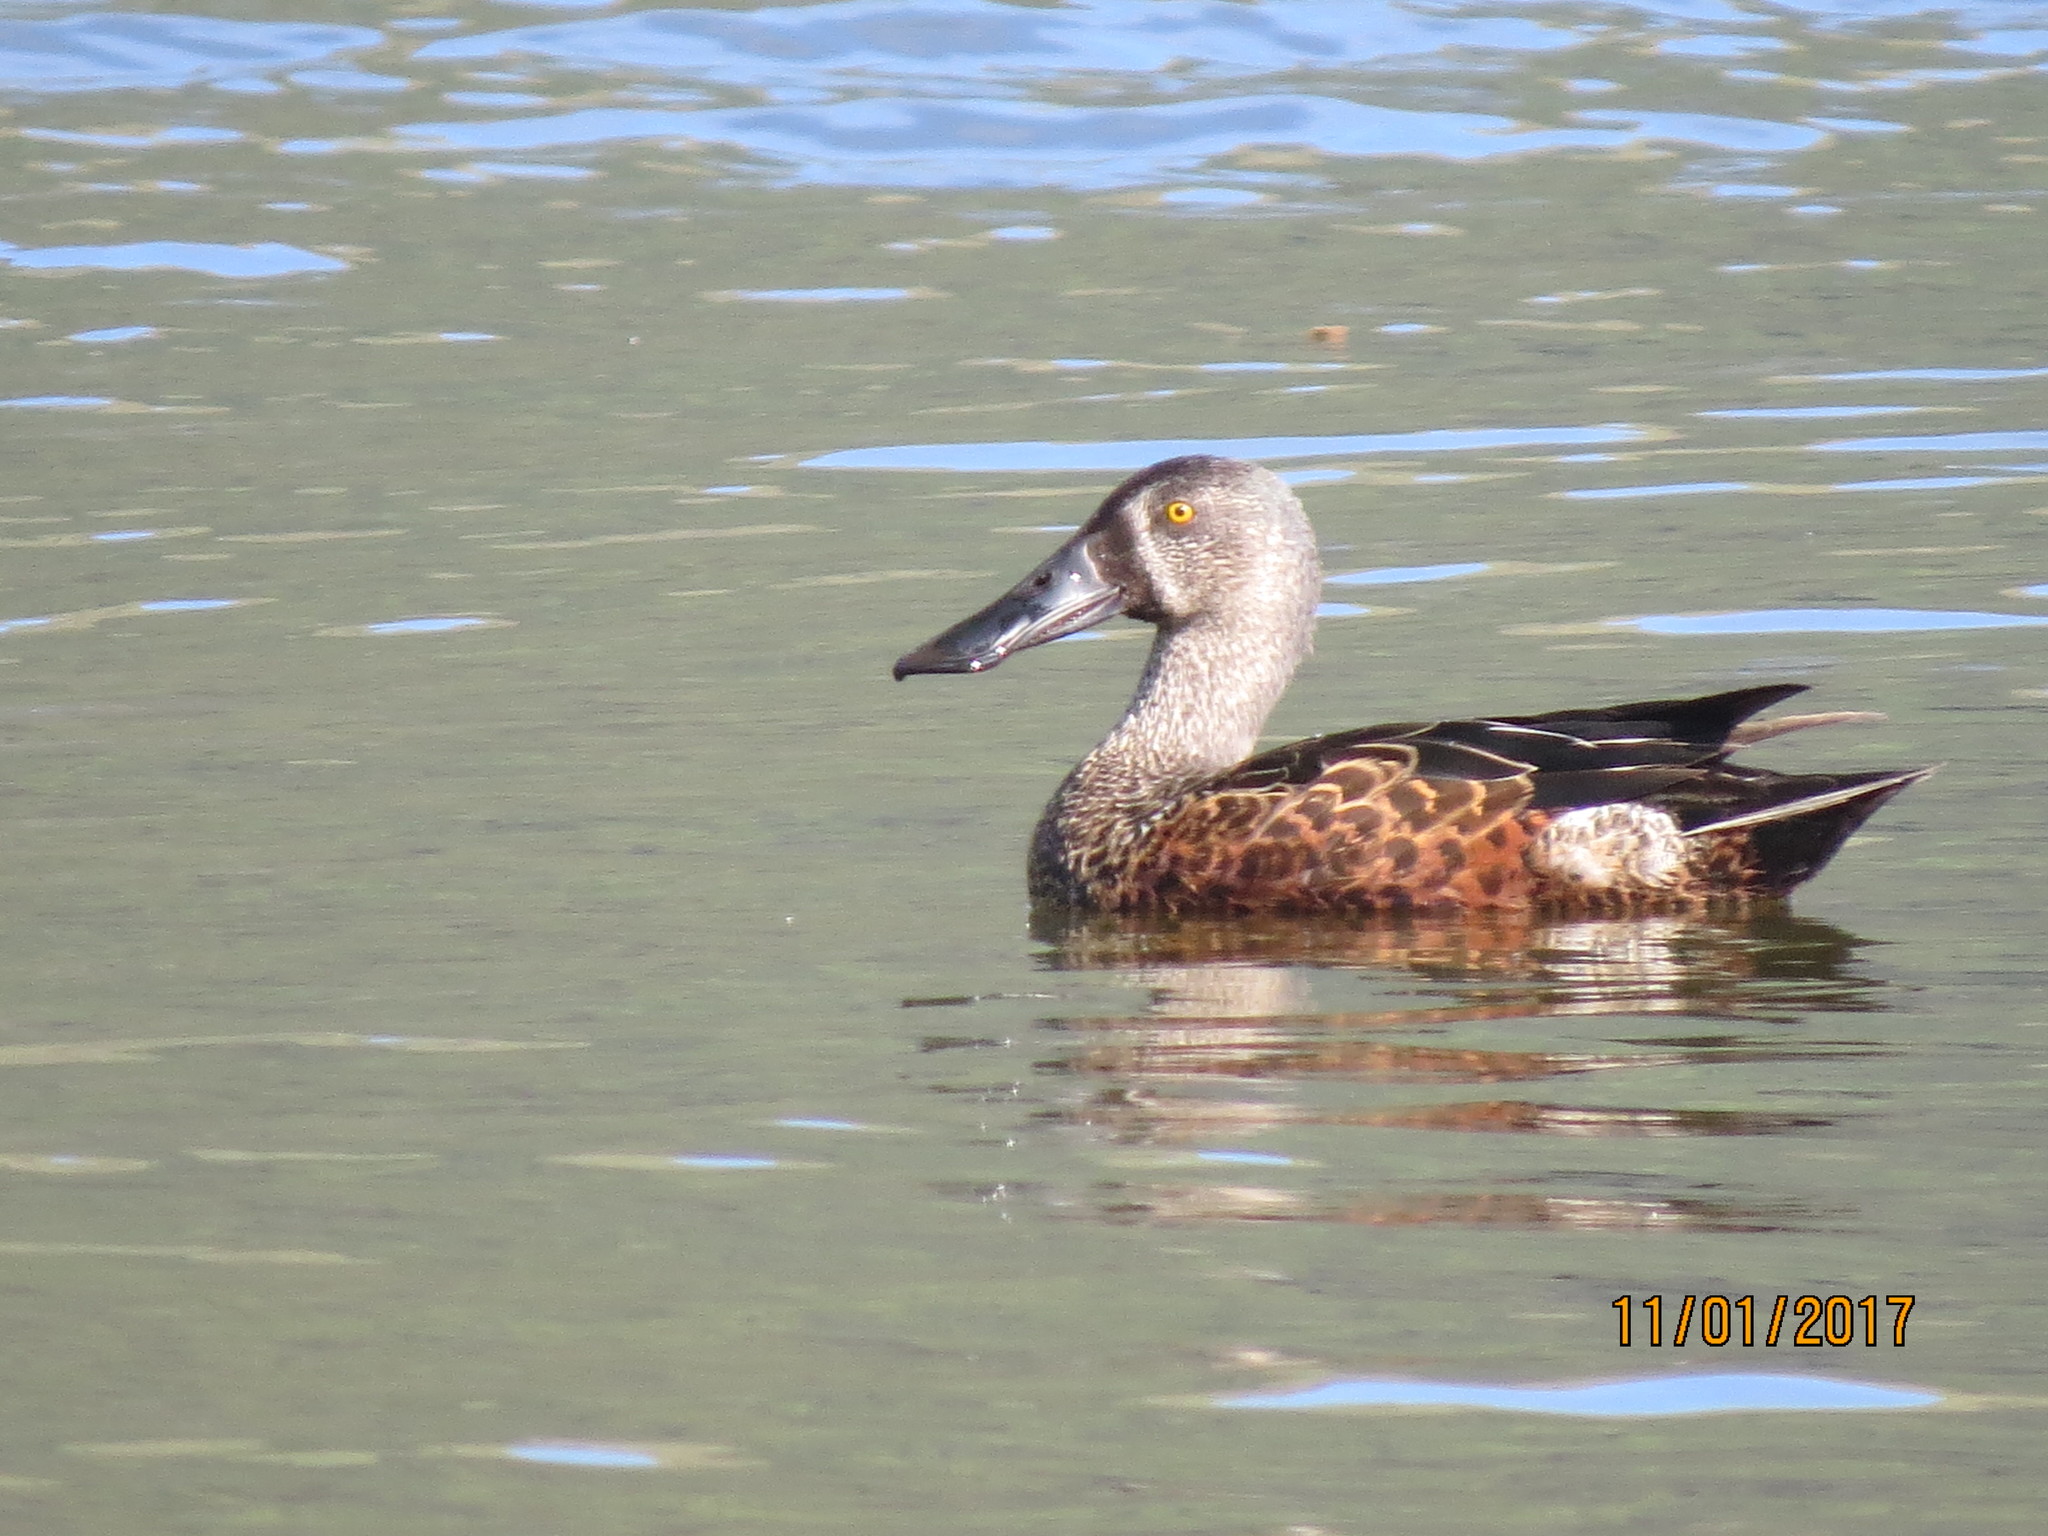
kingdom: Animalia
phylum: Chordata
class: Aves
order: Anseriformes
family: Anatidae
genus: Spatula
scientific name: Spatula rhynchotis
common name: Australian shoveler
